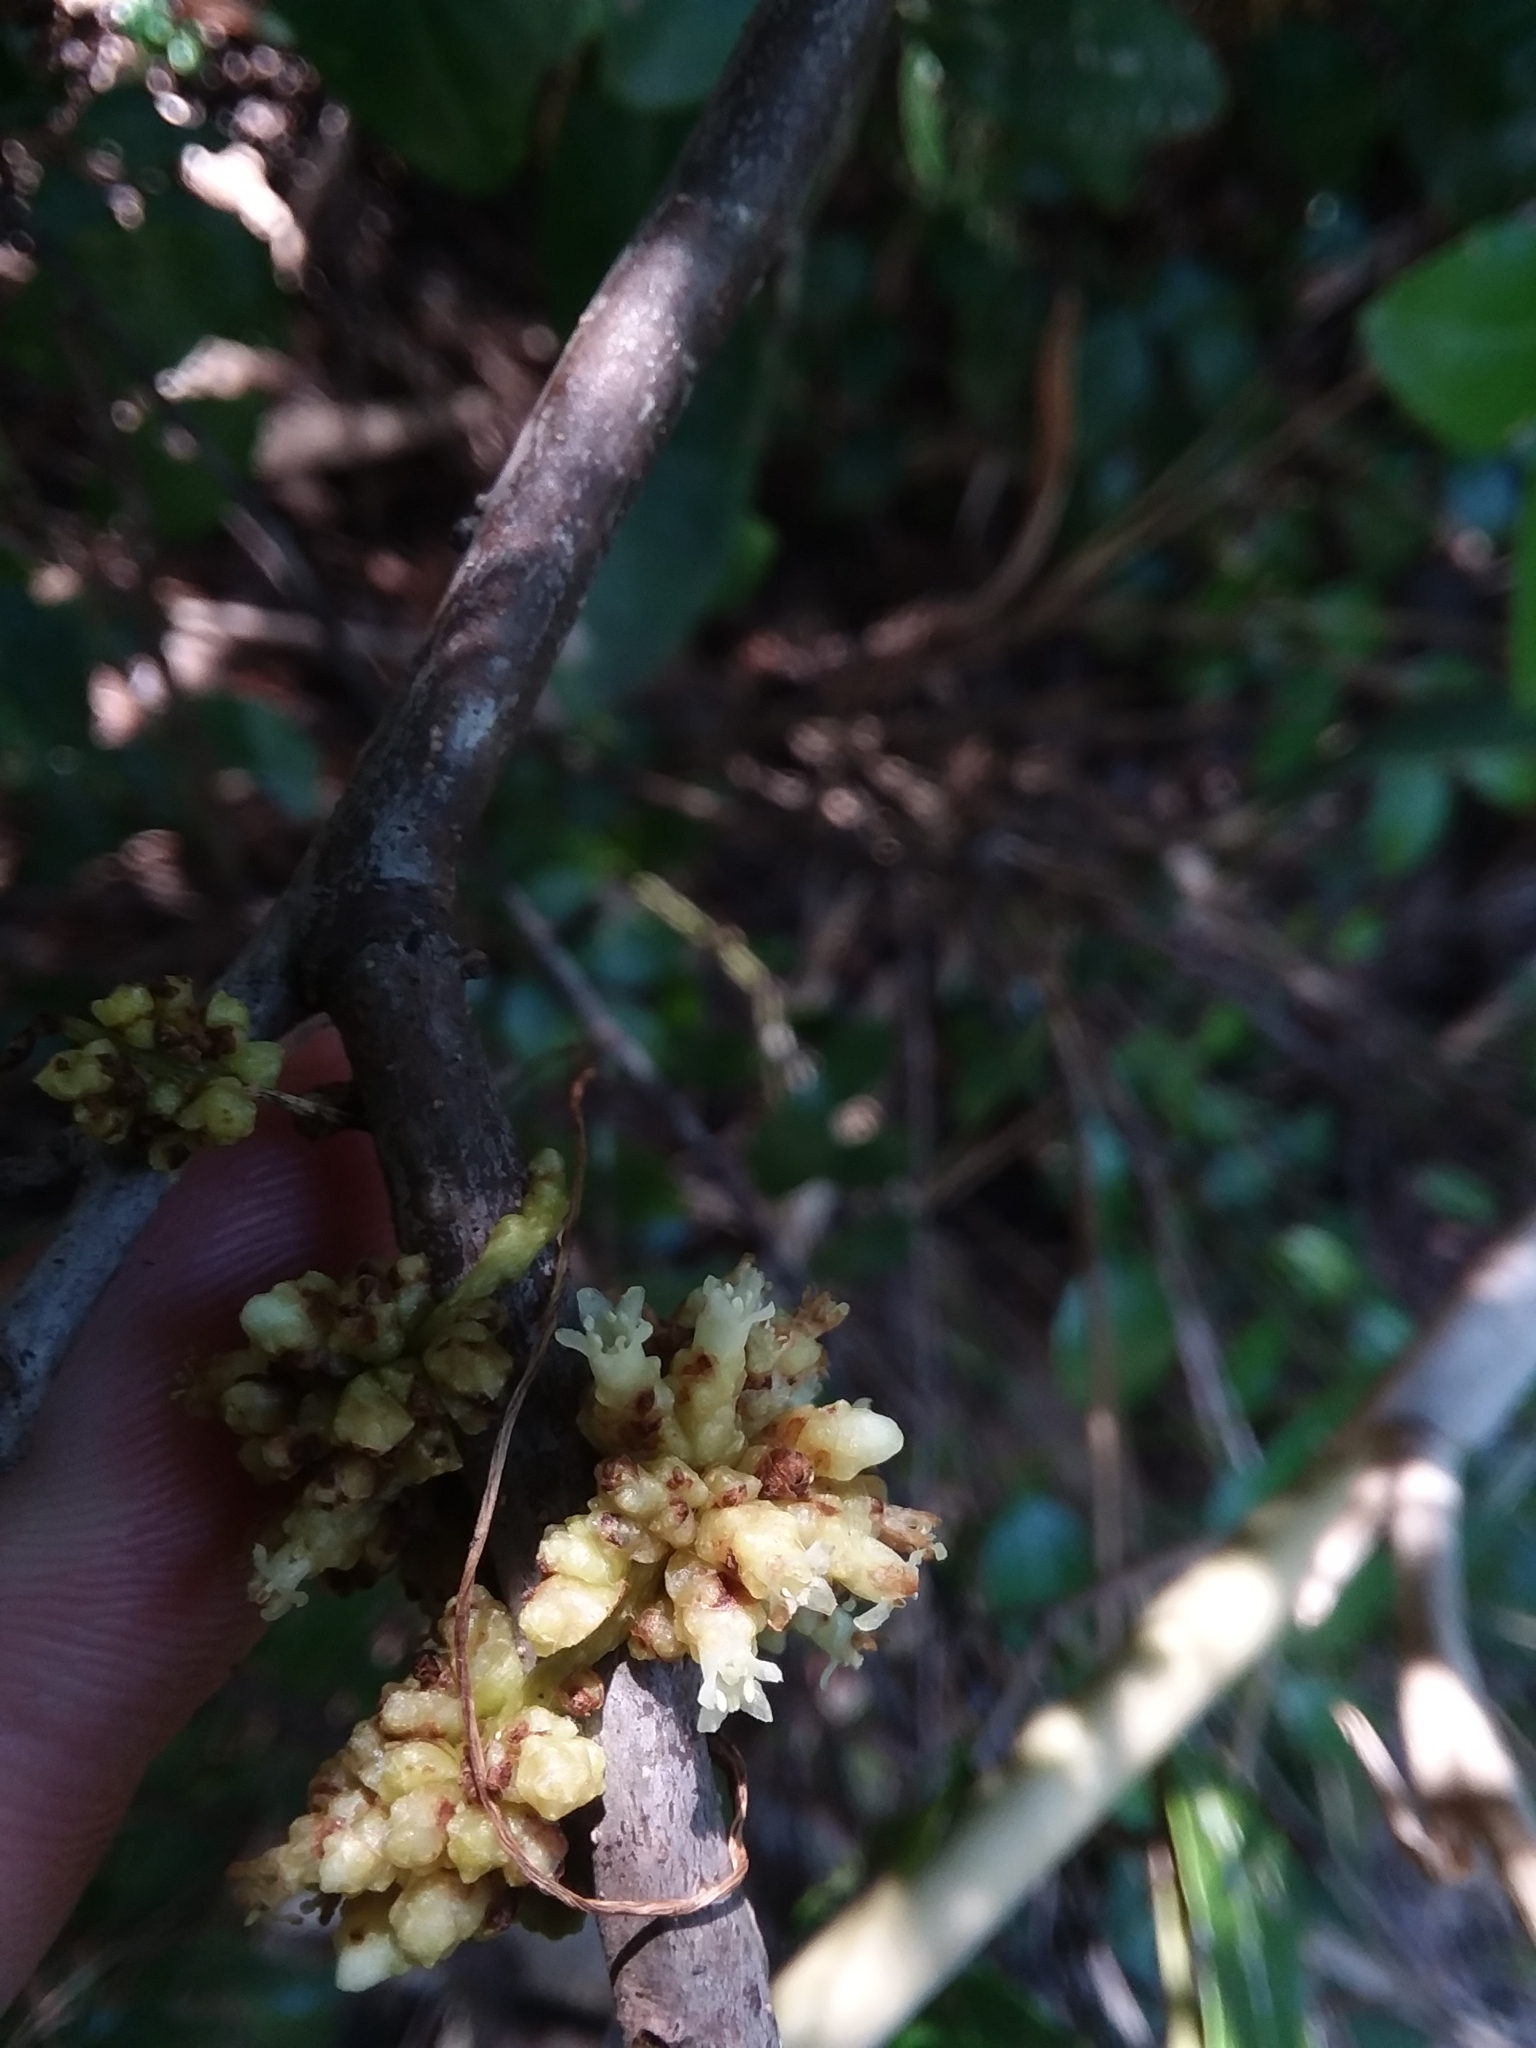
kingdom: Plantae
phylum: Tracheophyta
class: Magnoliopsida
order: Solanales
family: Convolvulaceae
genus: Cuscuta
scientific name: Cuscuta compacta
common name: Compact dodder
